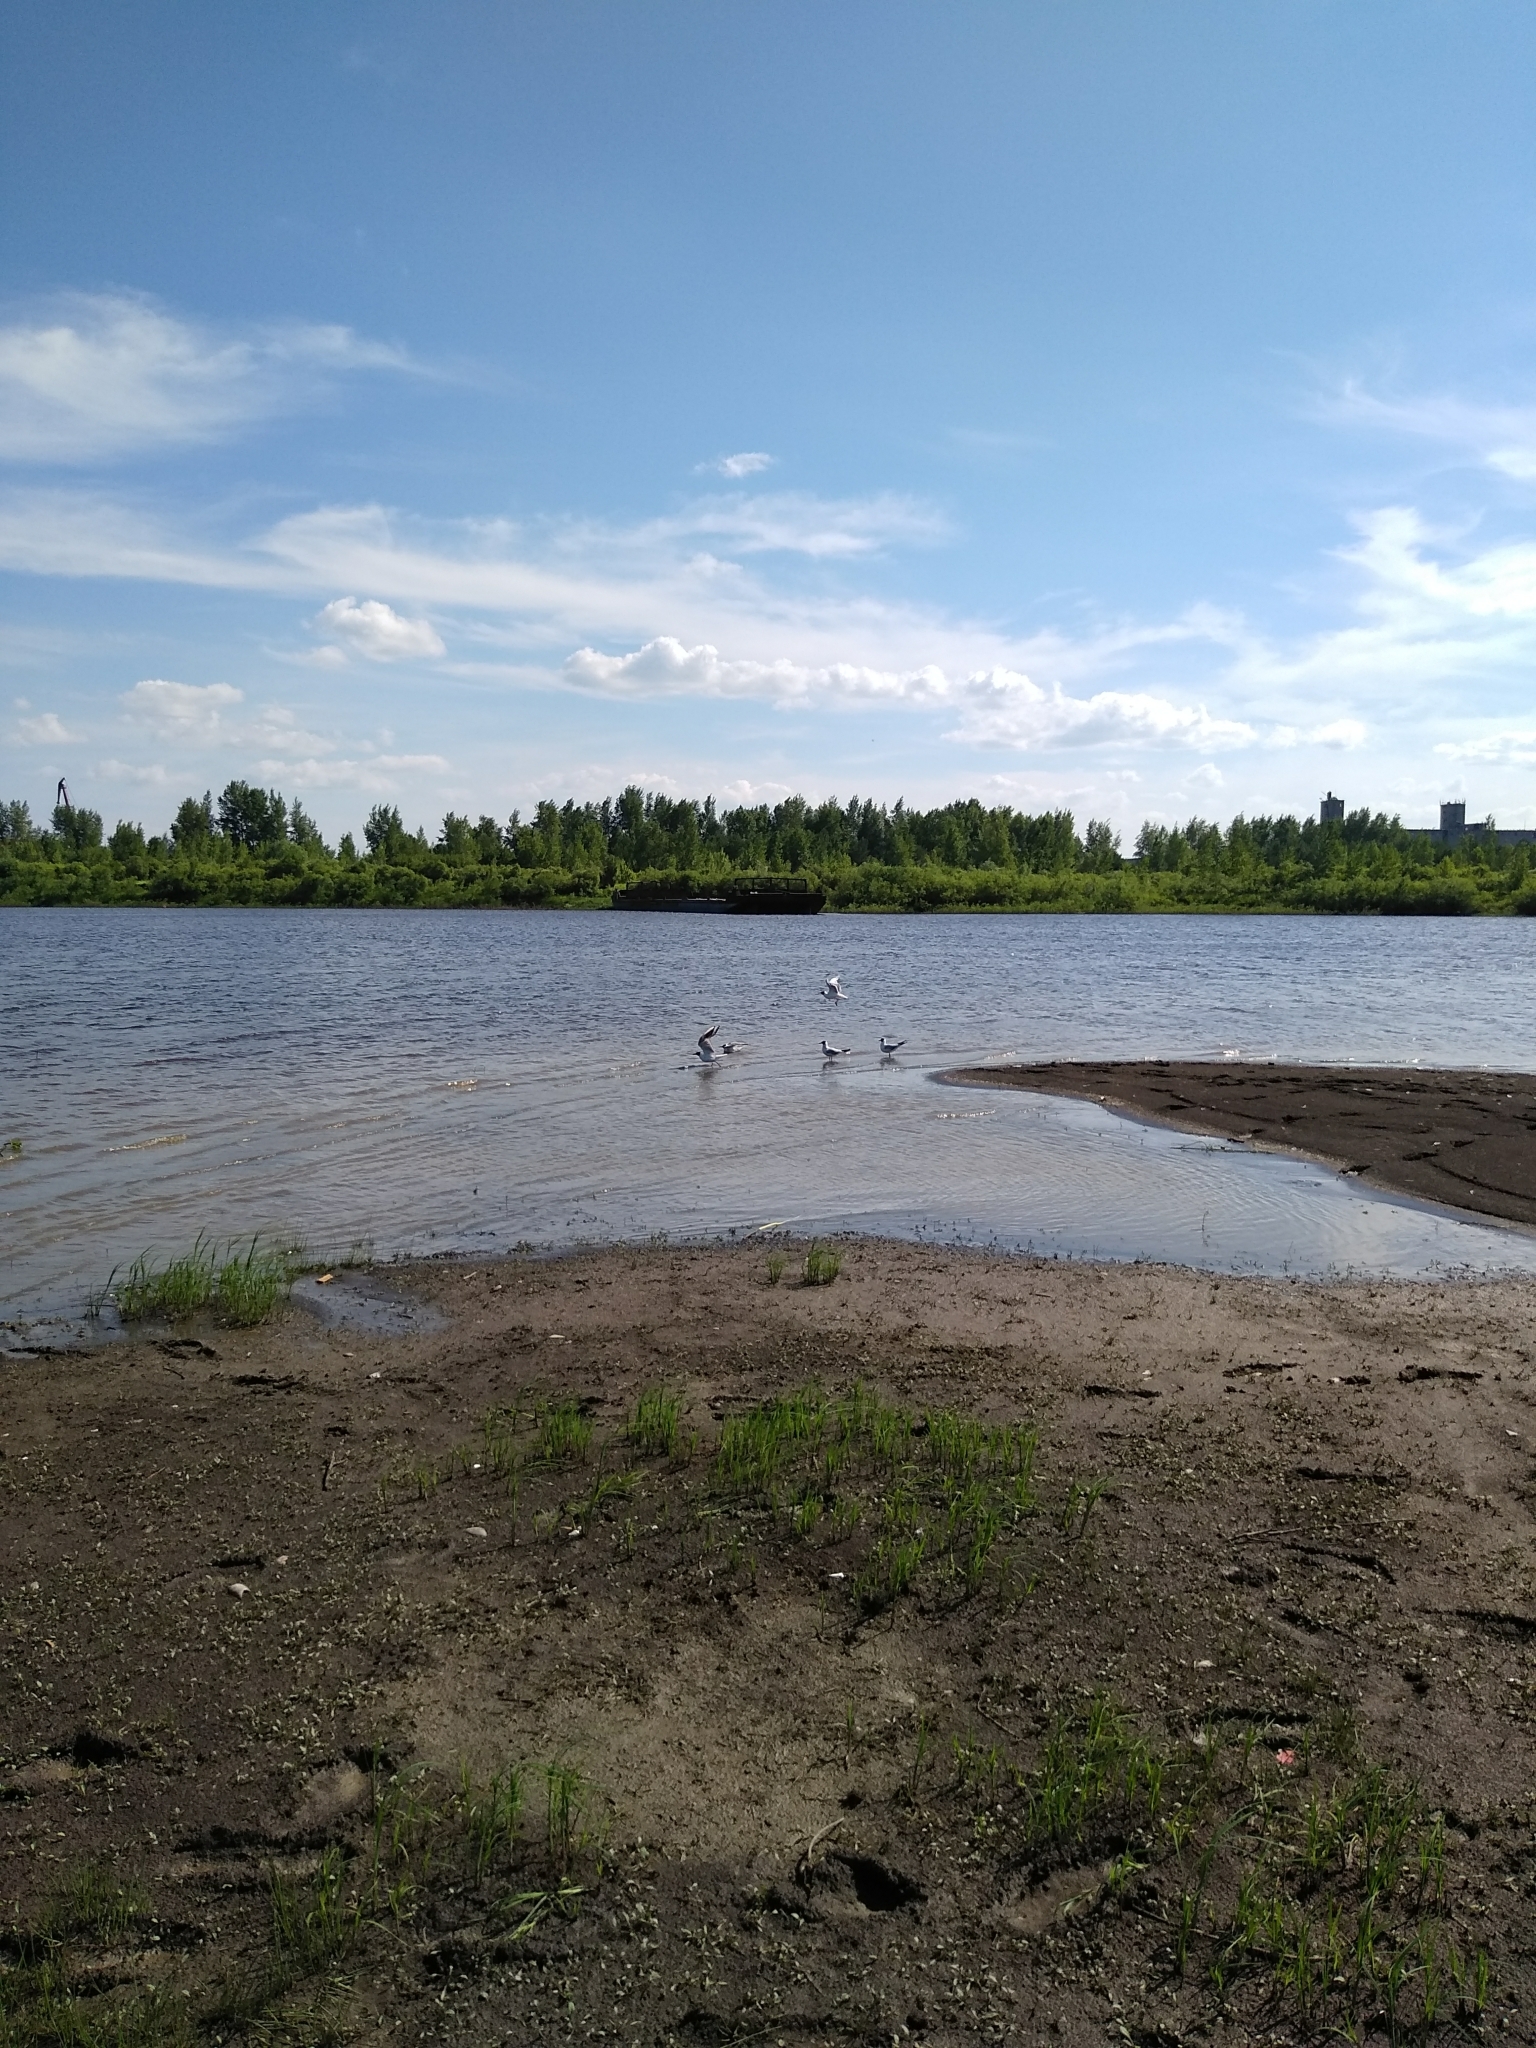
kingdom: Animalia
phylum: Chordata
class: Aves
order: Charadriiformes
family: Laridae
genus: Chroicocephalus
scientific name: Chroicocephalus ridibundus
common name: Black-headed gull
